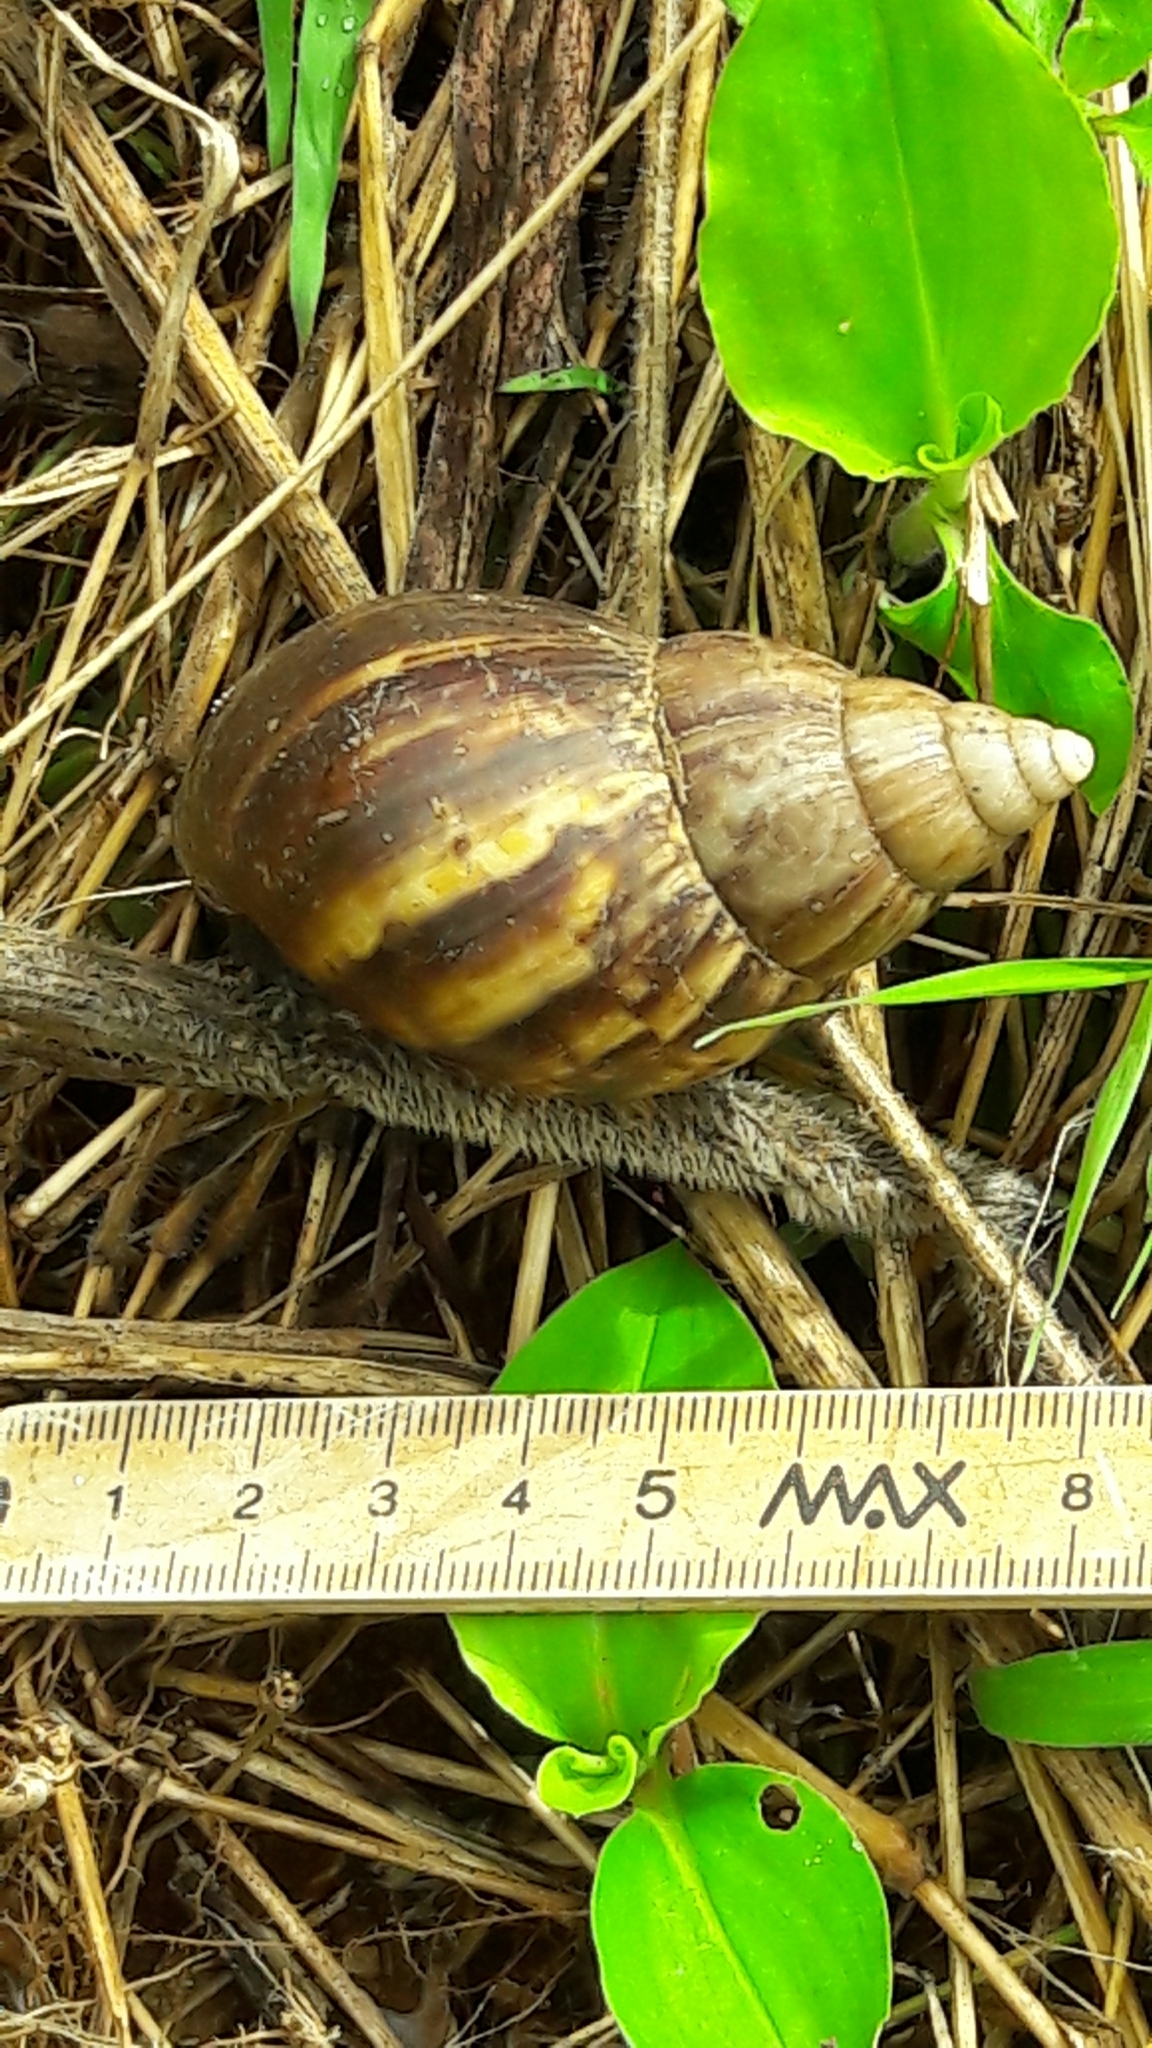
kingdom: Animalia
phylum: Mollusca
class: Gastropoda
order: Stylommatophora
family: Achatinidae
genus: Lissachatina
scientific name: Lissachatina fulica
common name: Giant african snail
